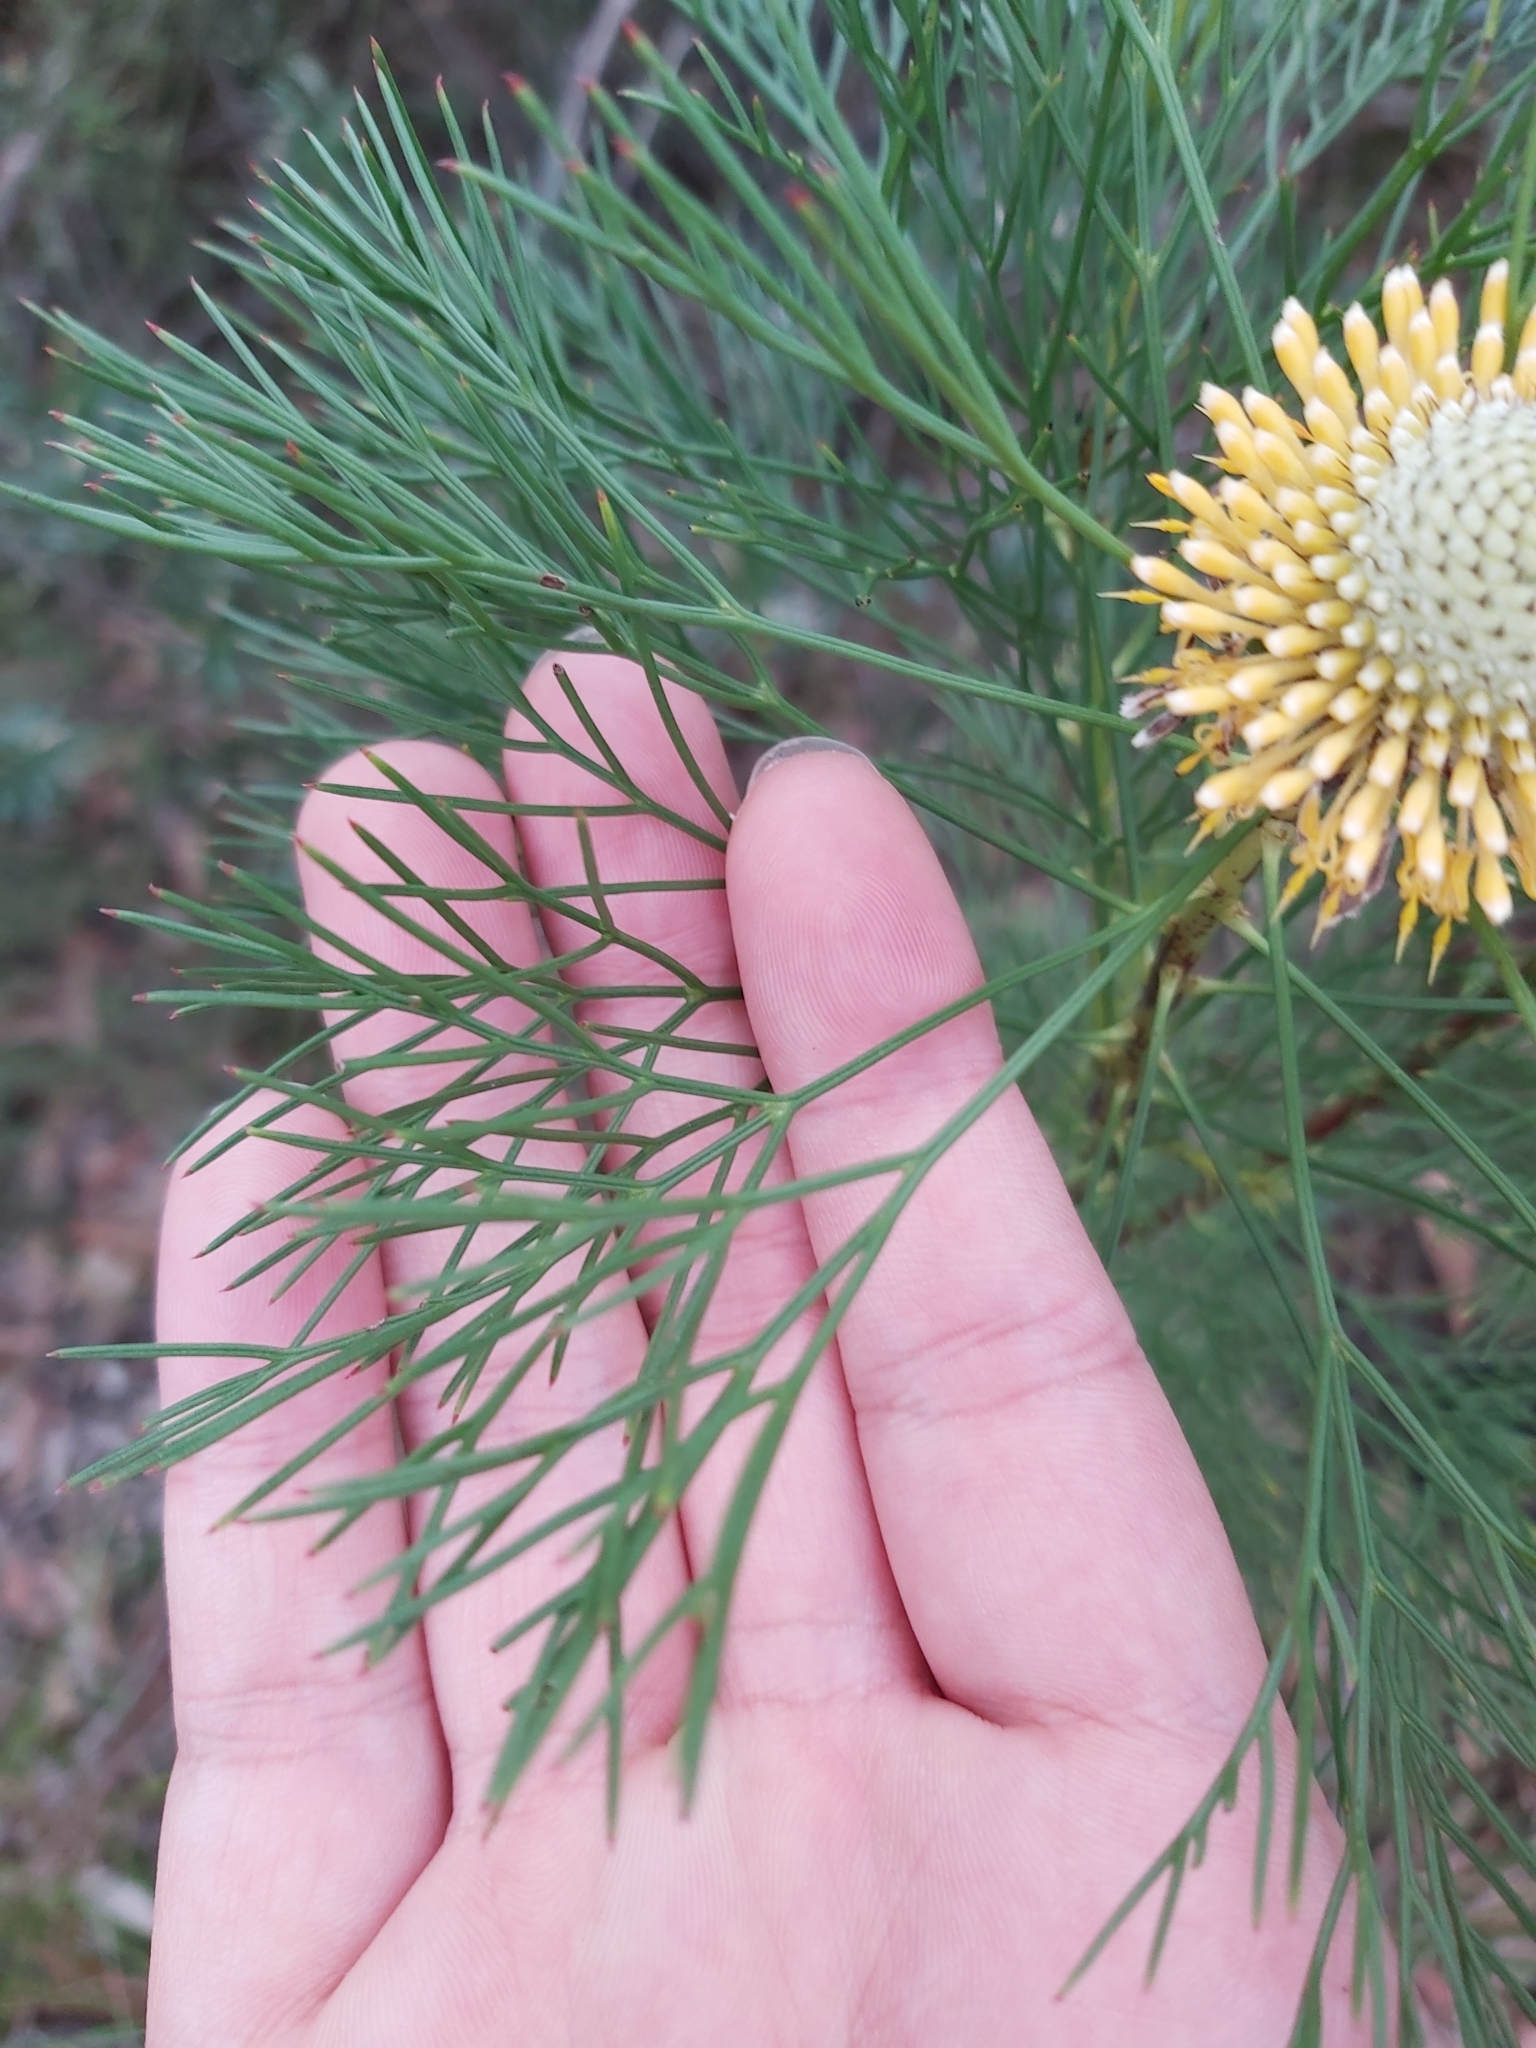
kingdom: Plantae
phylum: Tracheophyta
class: Magnoliopsida
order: Proteales
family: Proteaceae
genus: Isopogon
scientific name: Isopogon anethifolius
